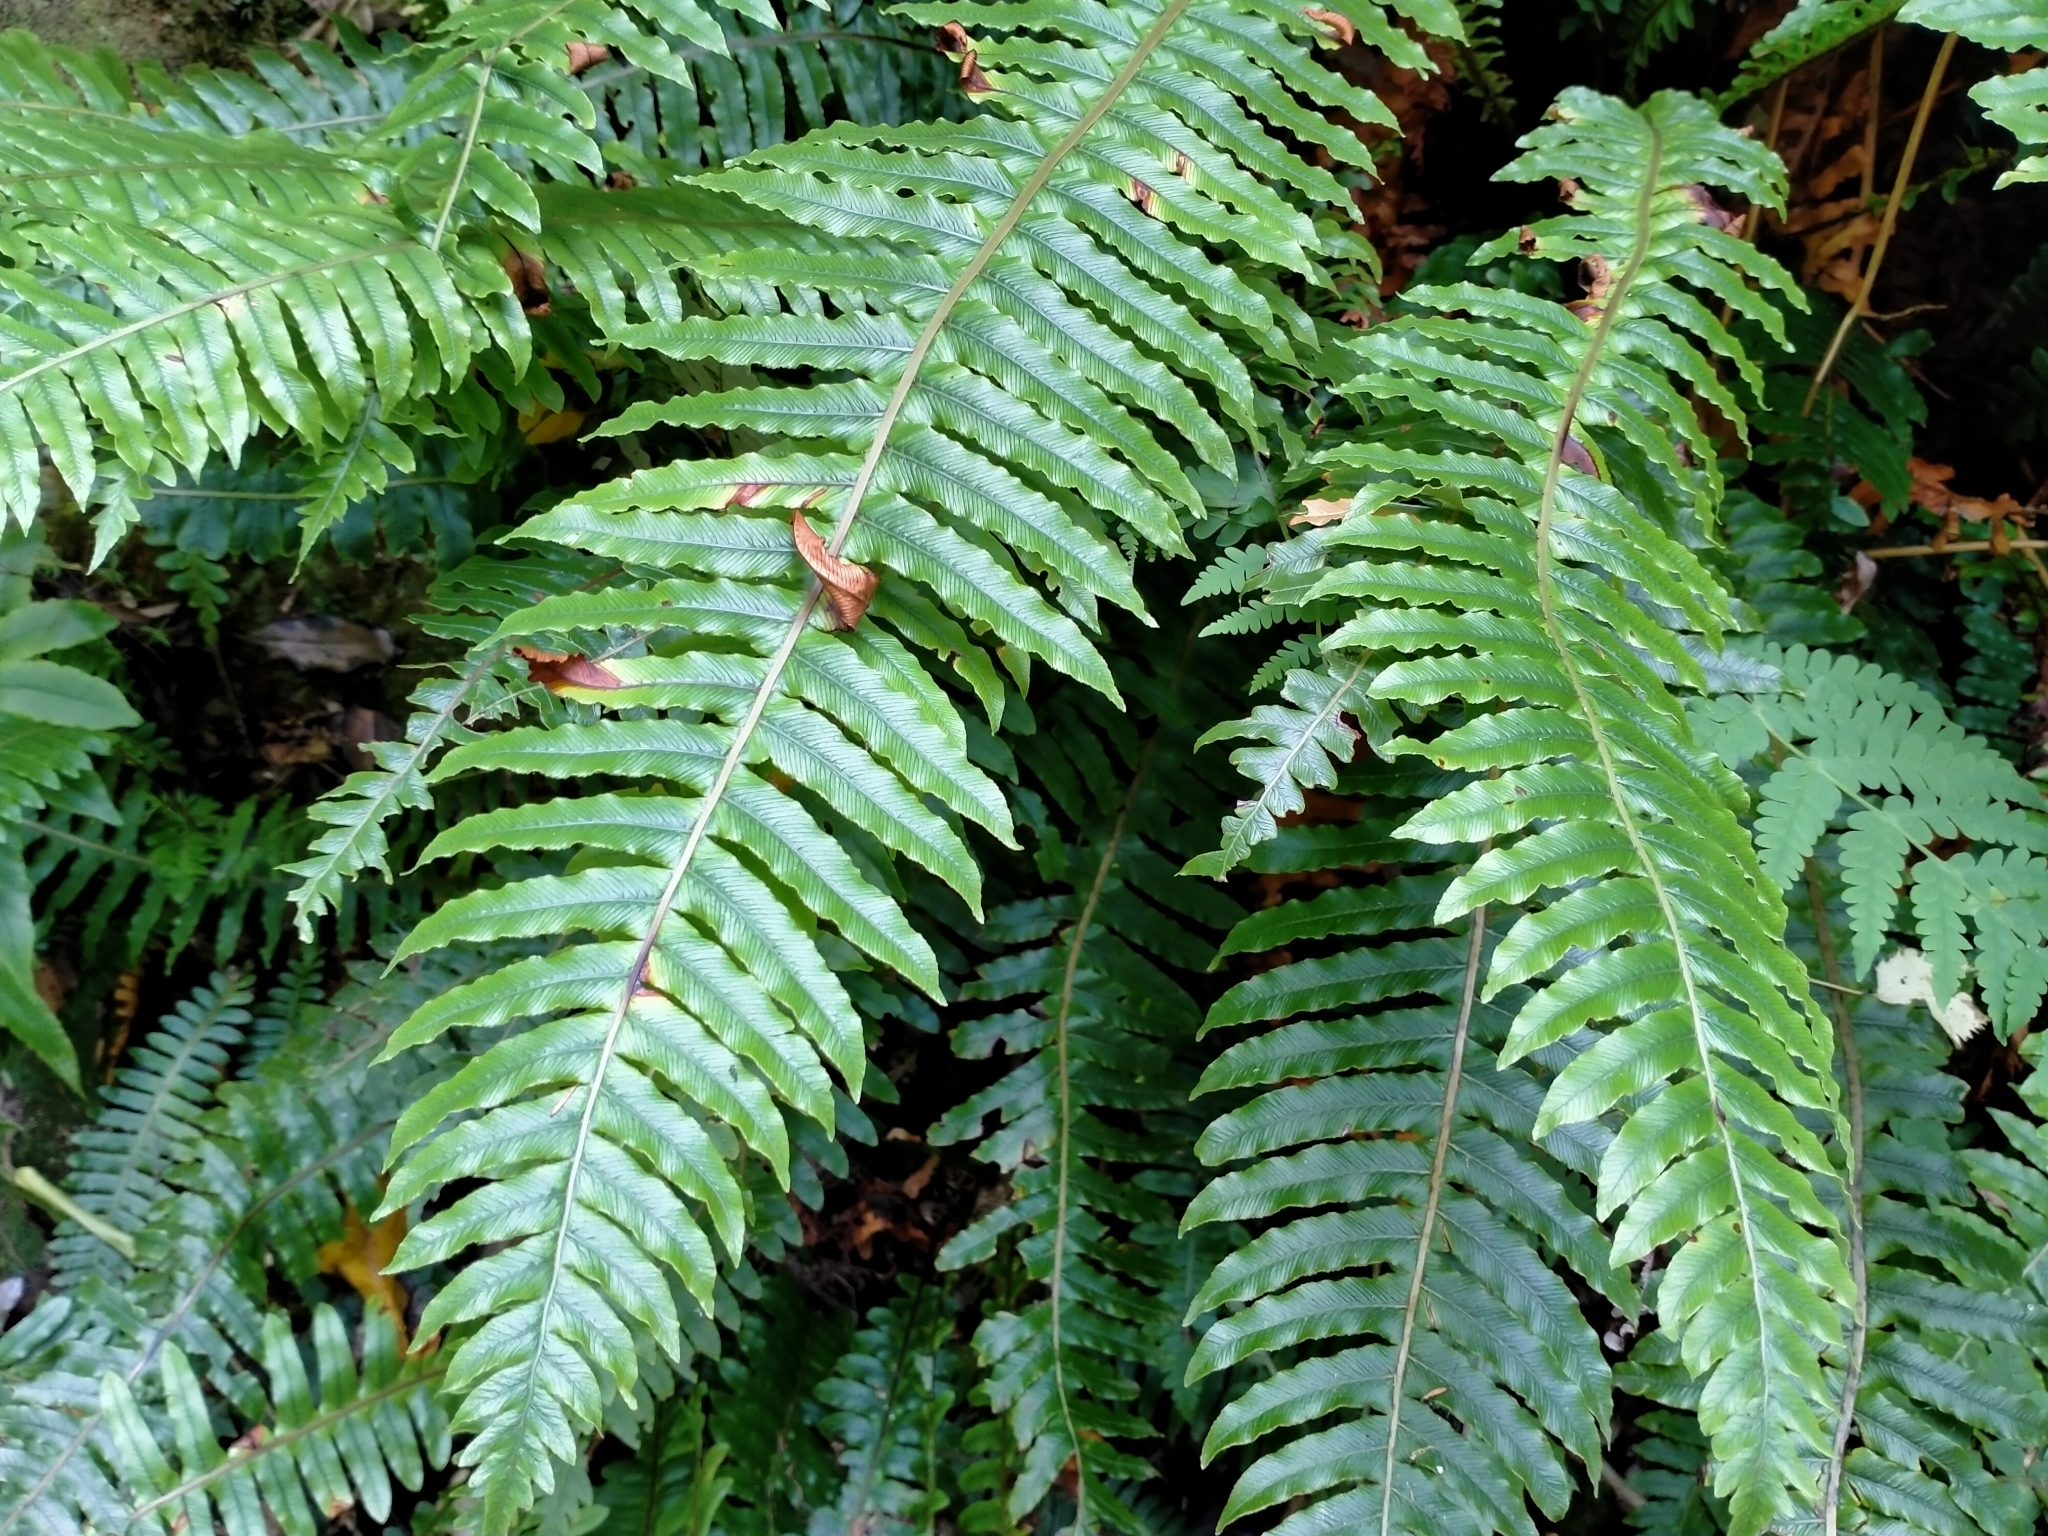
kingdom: Plantae
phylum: Tracheophyta
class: Polypodiopsida
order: Polypodiales
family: Blechnaceae
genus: Lomaria
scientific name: Lomaria discolor
